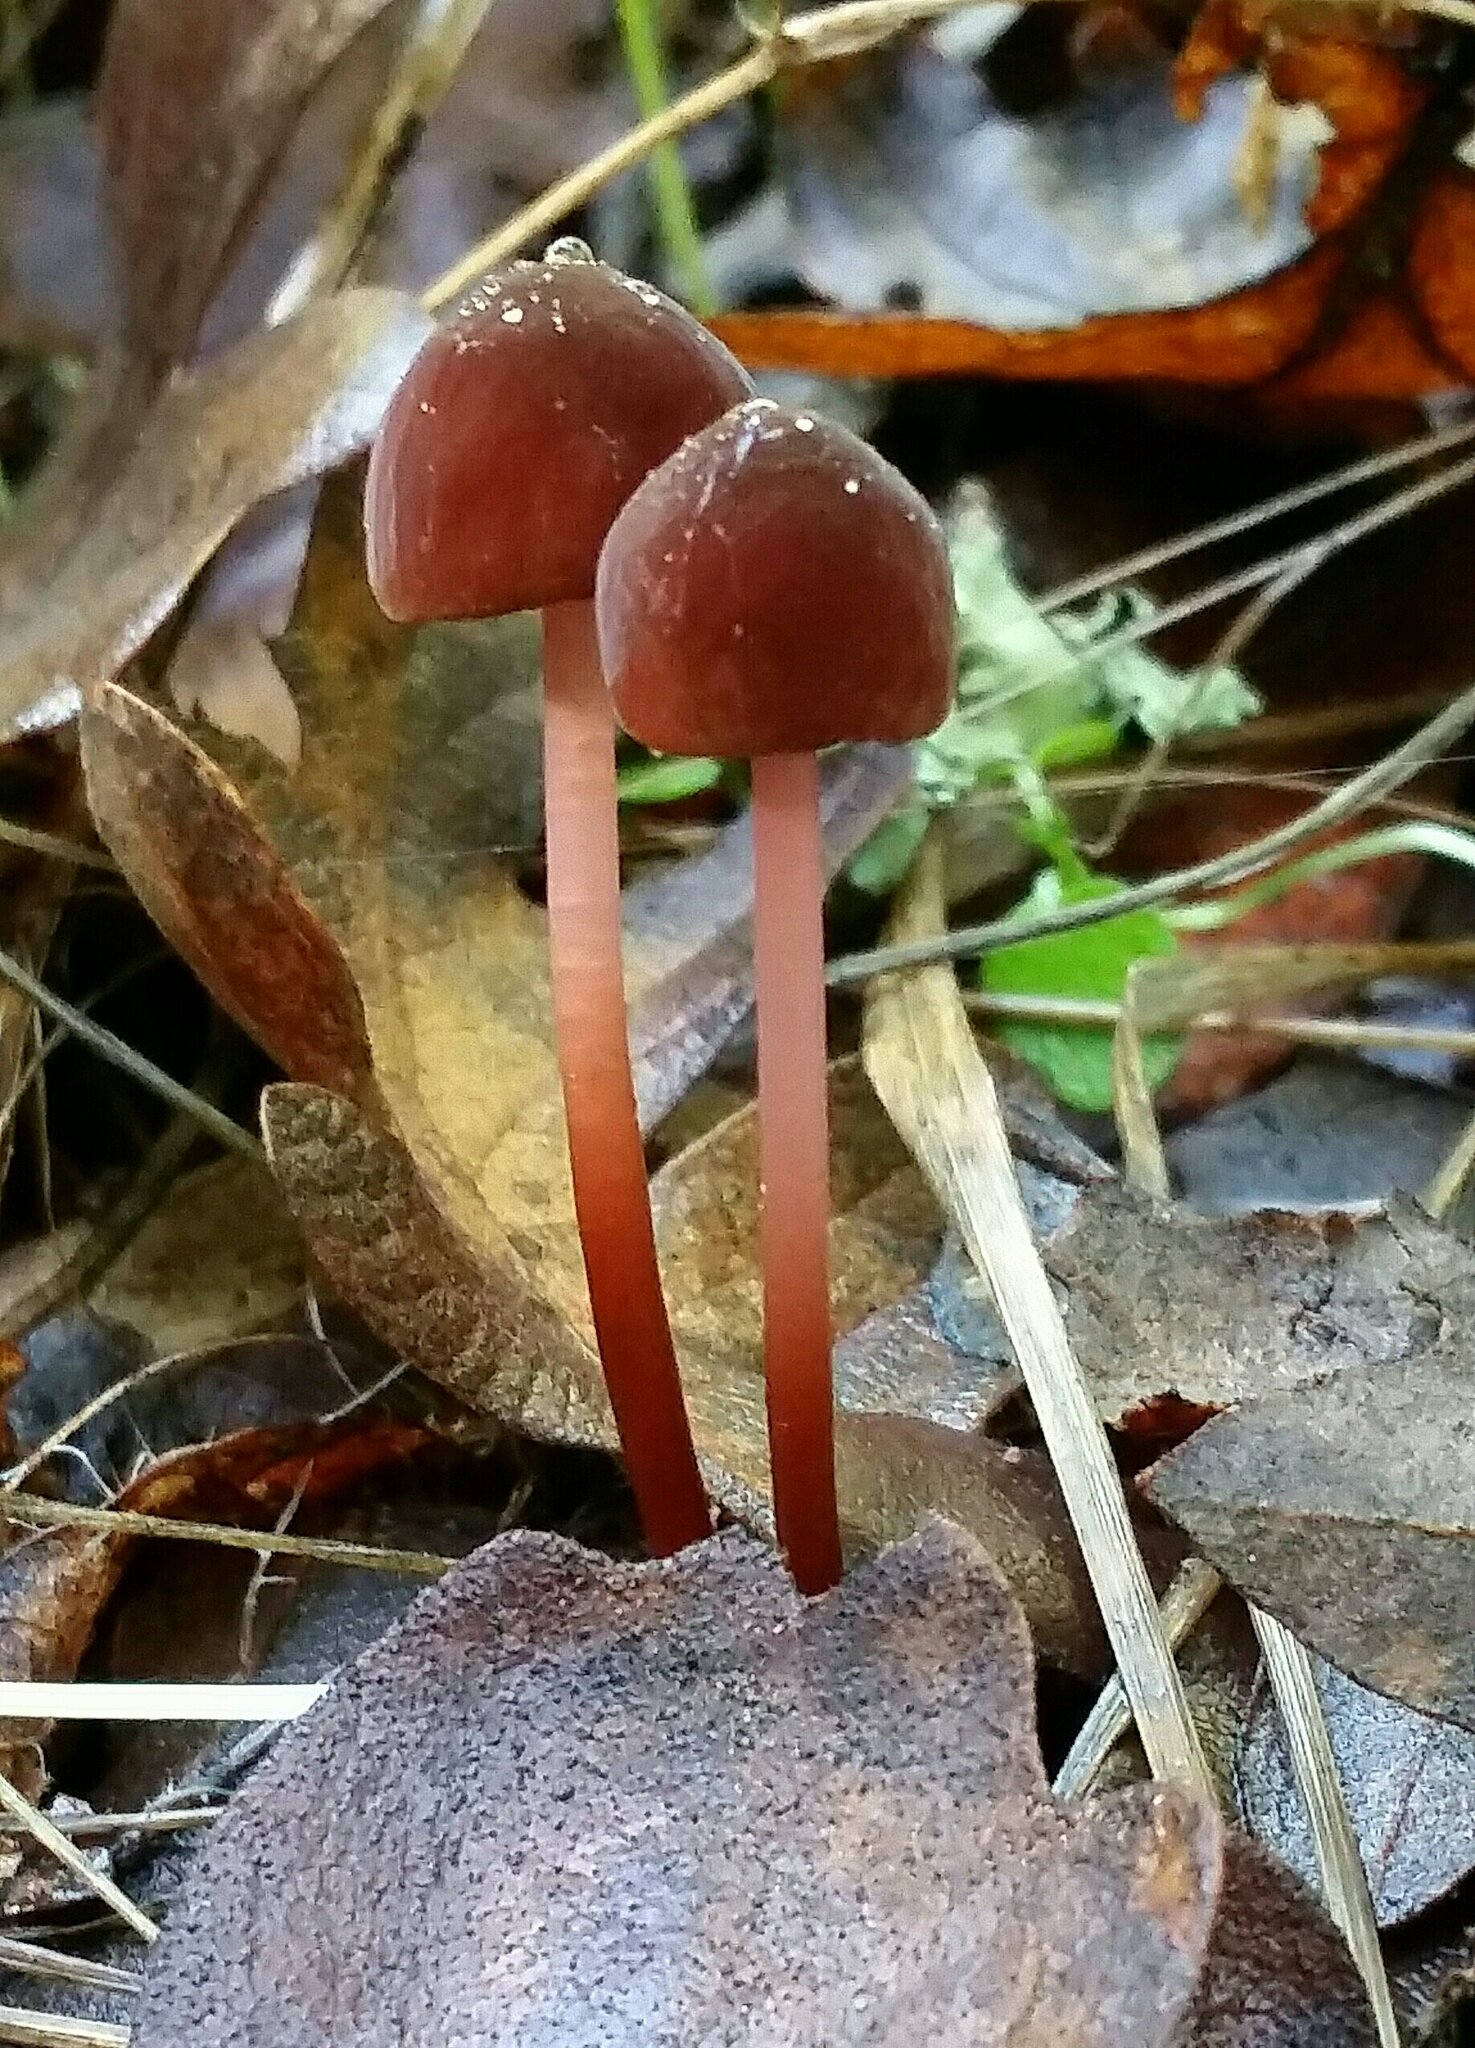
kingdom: Fungi
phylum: Basidiomycota
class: Agaricomycetes
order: Agaricales
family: Marasmiaceae
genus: Marasmius
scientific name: Marasmius plicatulus
